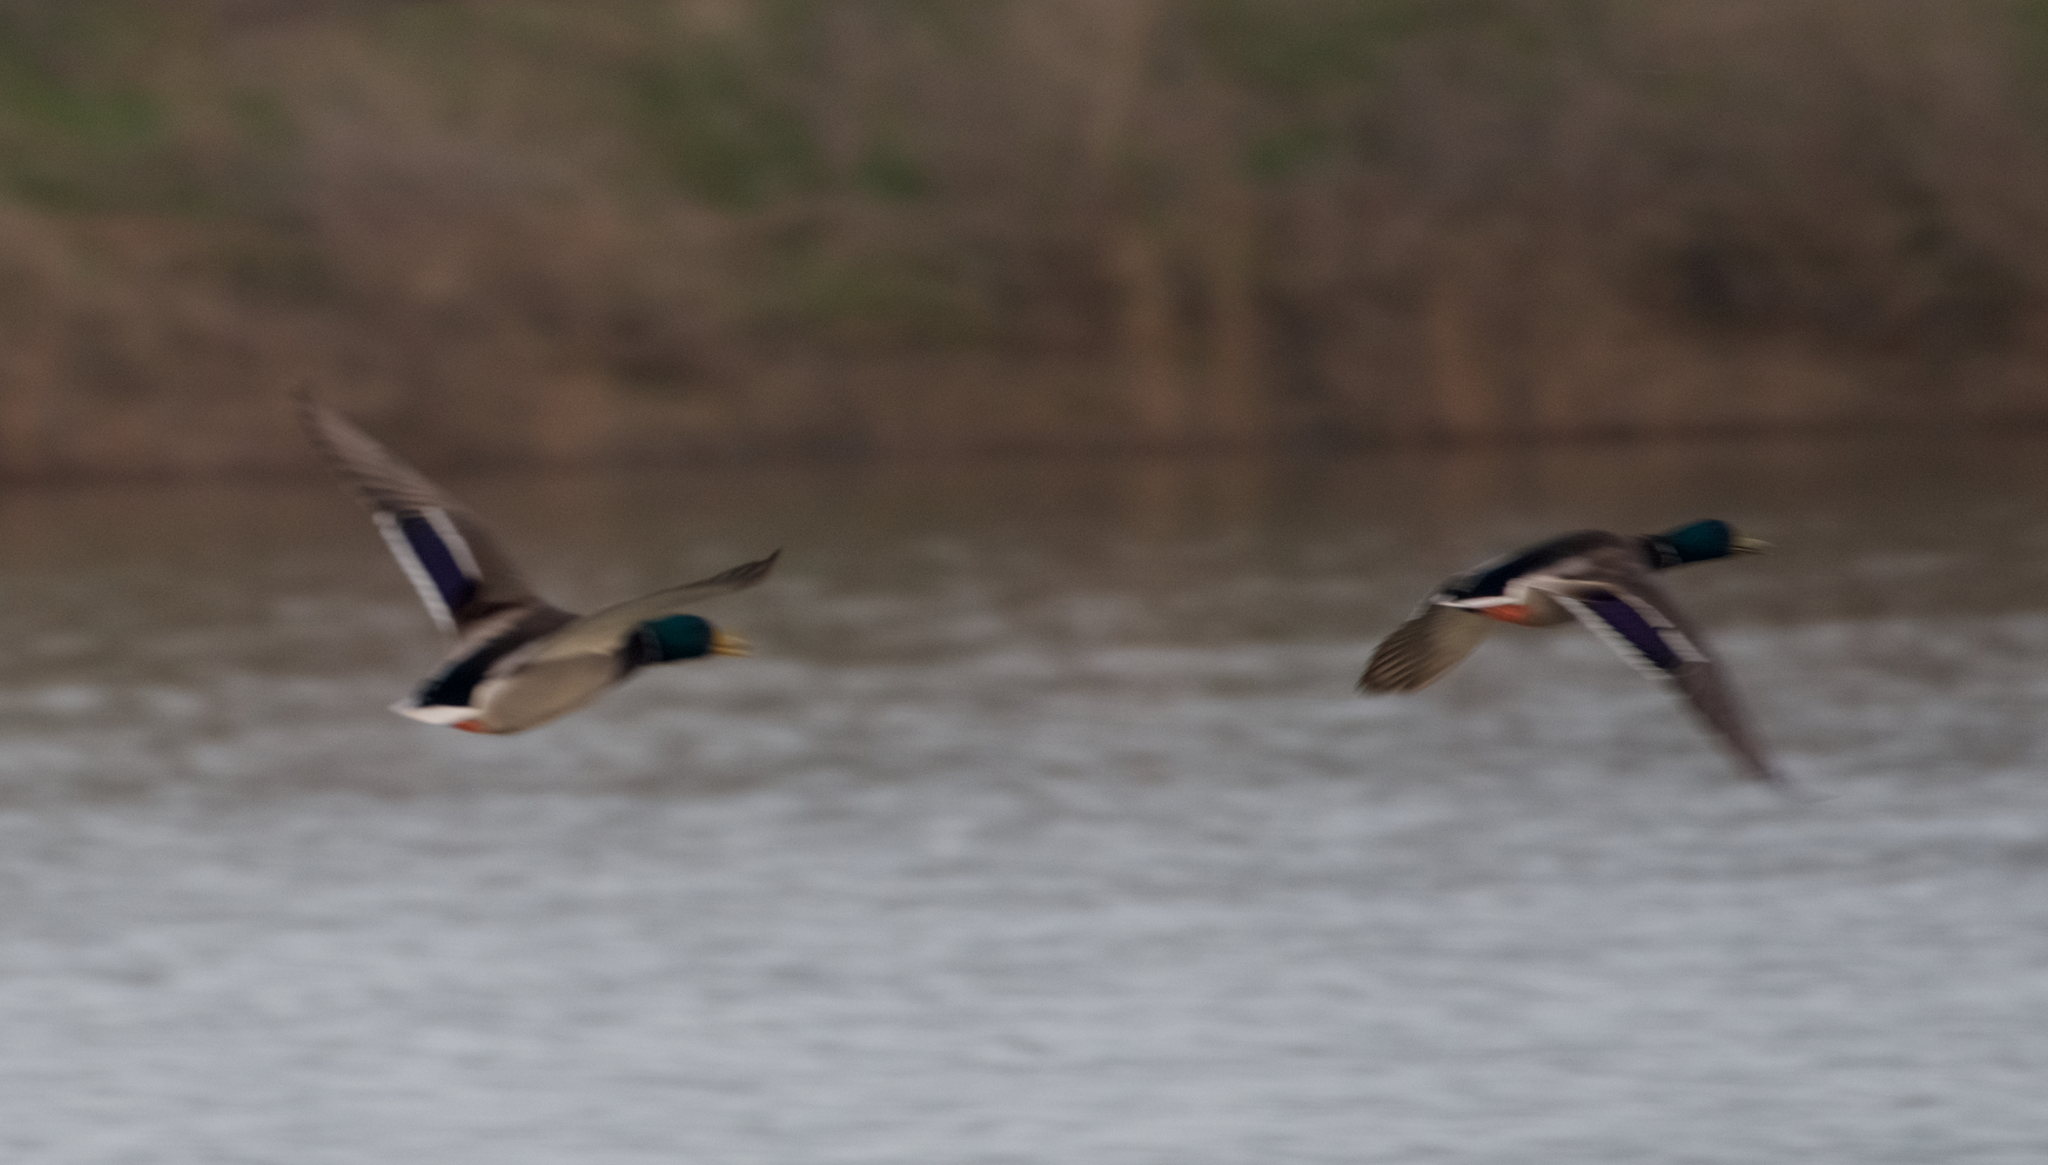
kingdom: Animalia
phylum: Chordata
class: Aves
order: Anseriformes
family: Anatidae
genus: Anas
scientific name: Anas platyrhynchos
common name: Mallard
